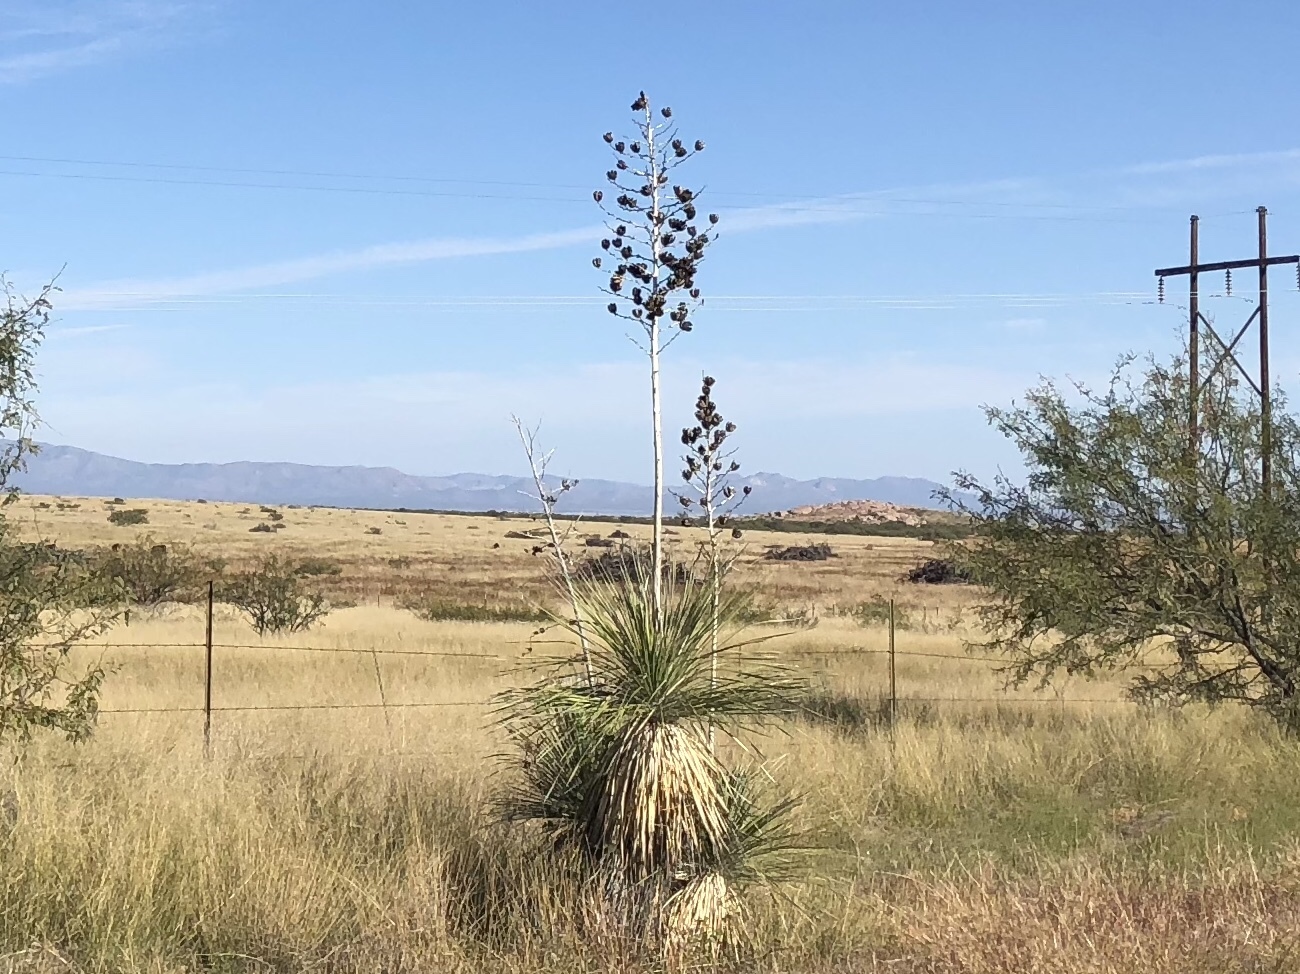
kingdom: Plantae
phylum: Tracheophyta
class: Liliopsida
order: Asparagales
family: Asparagaceae
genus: Yucca
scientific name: Yucca elata
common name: Palmella
